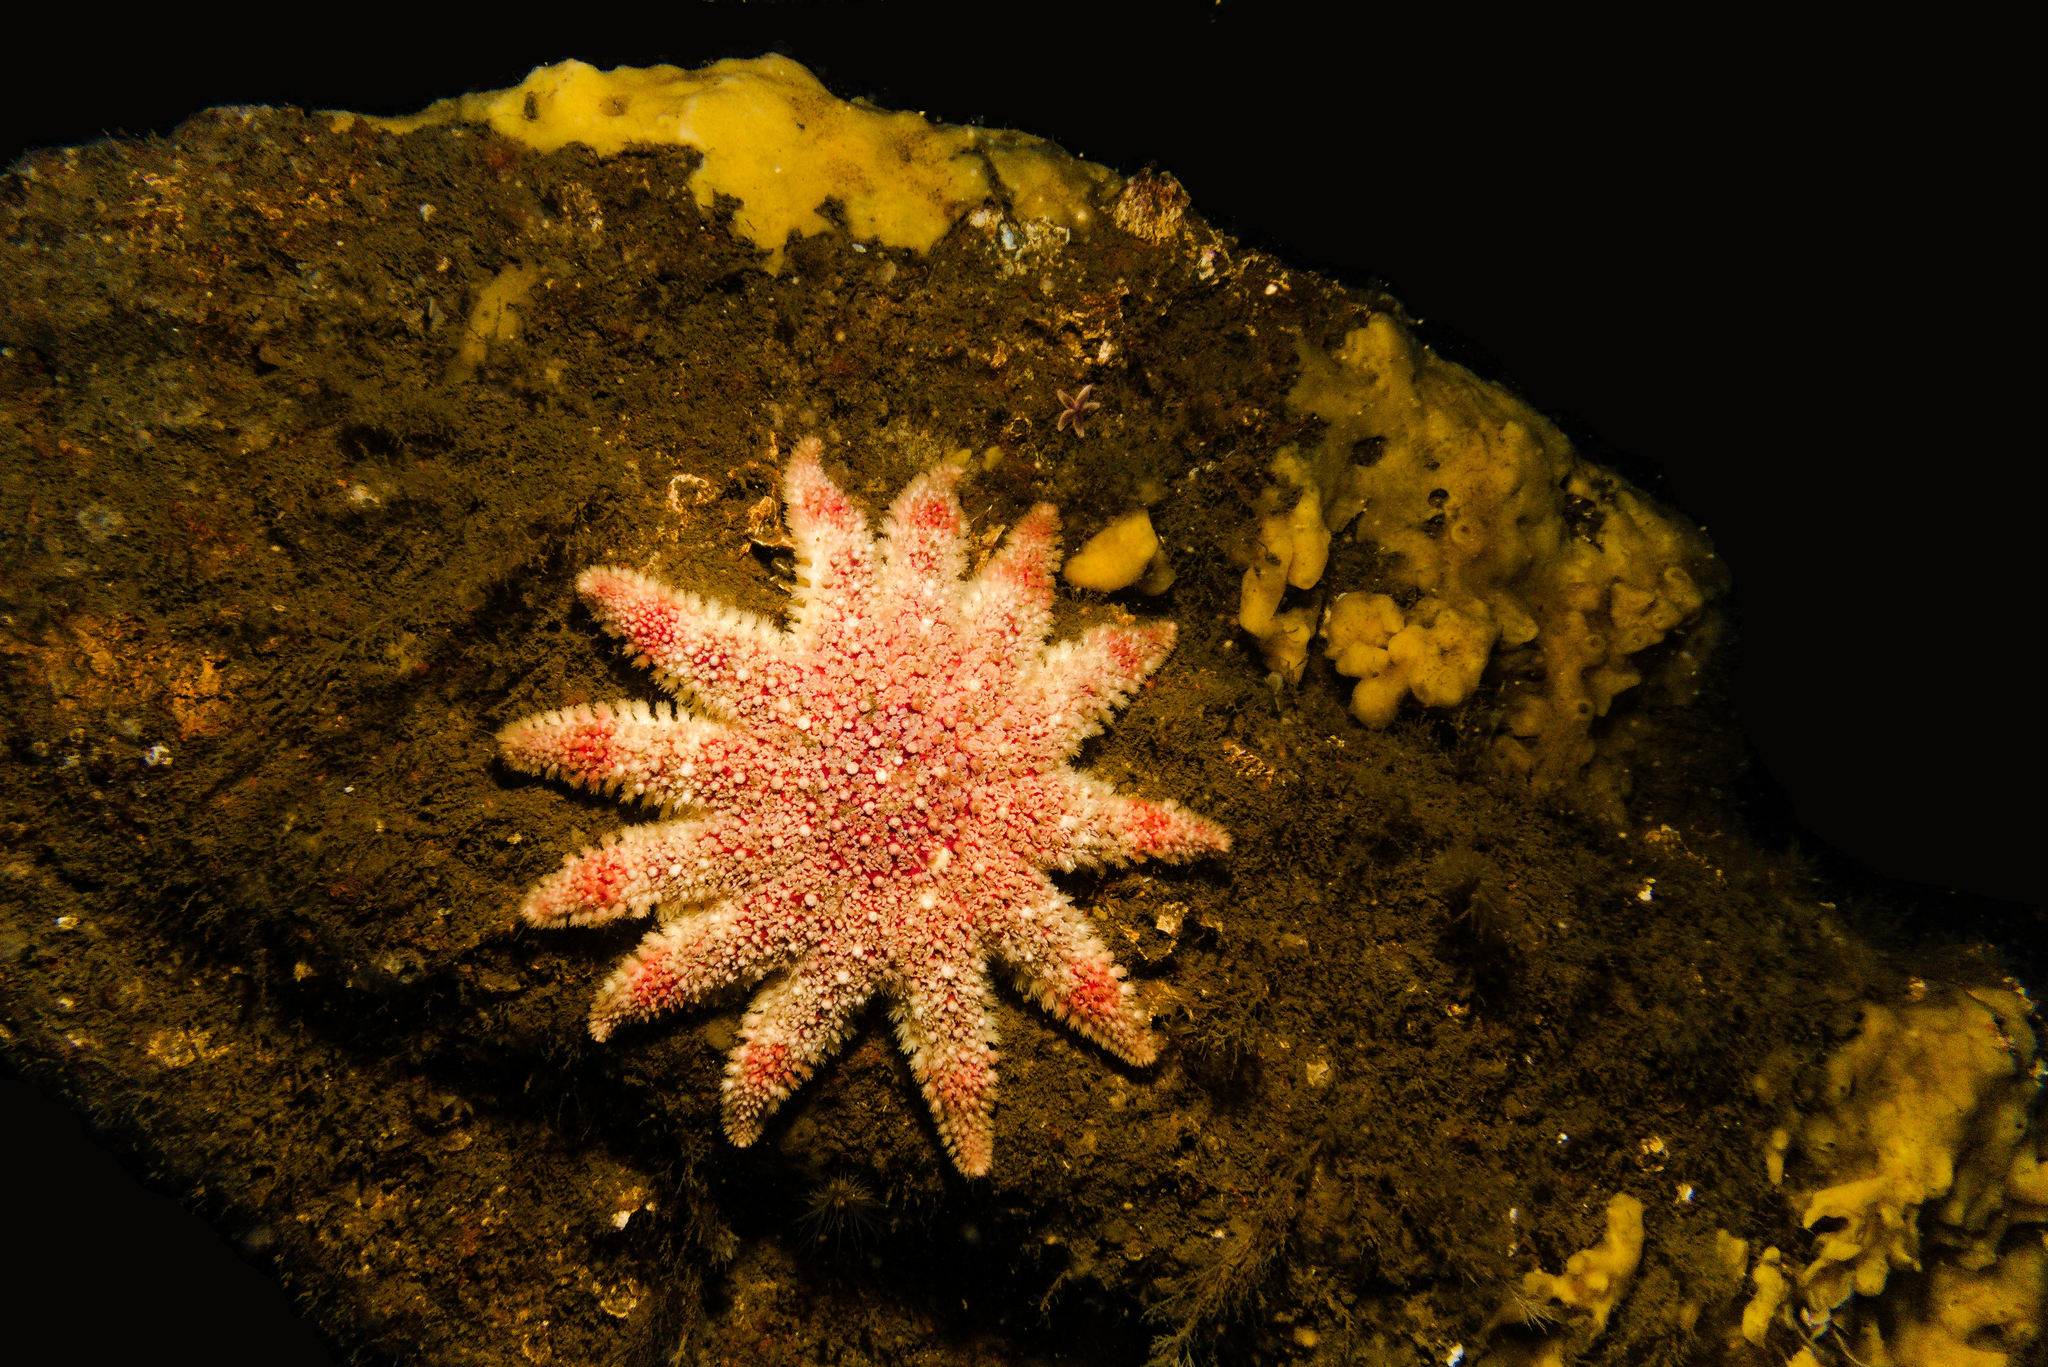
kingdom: Animalia
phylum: Echinodermata
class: Asteroidea
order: Valvatida
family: Solasteridae
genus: Crossaster
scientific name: Crossaster papposus
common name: Common sun star
